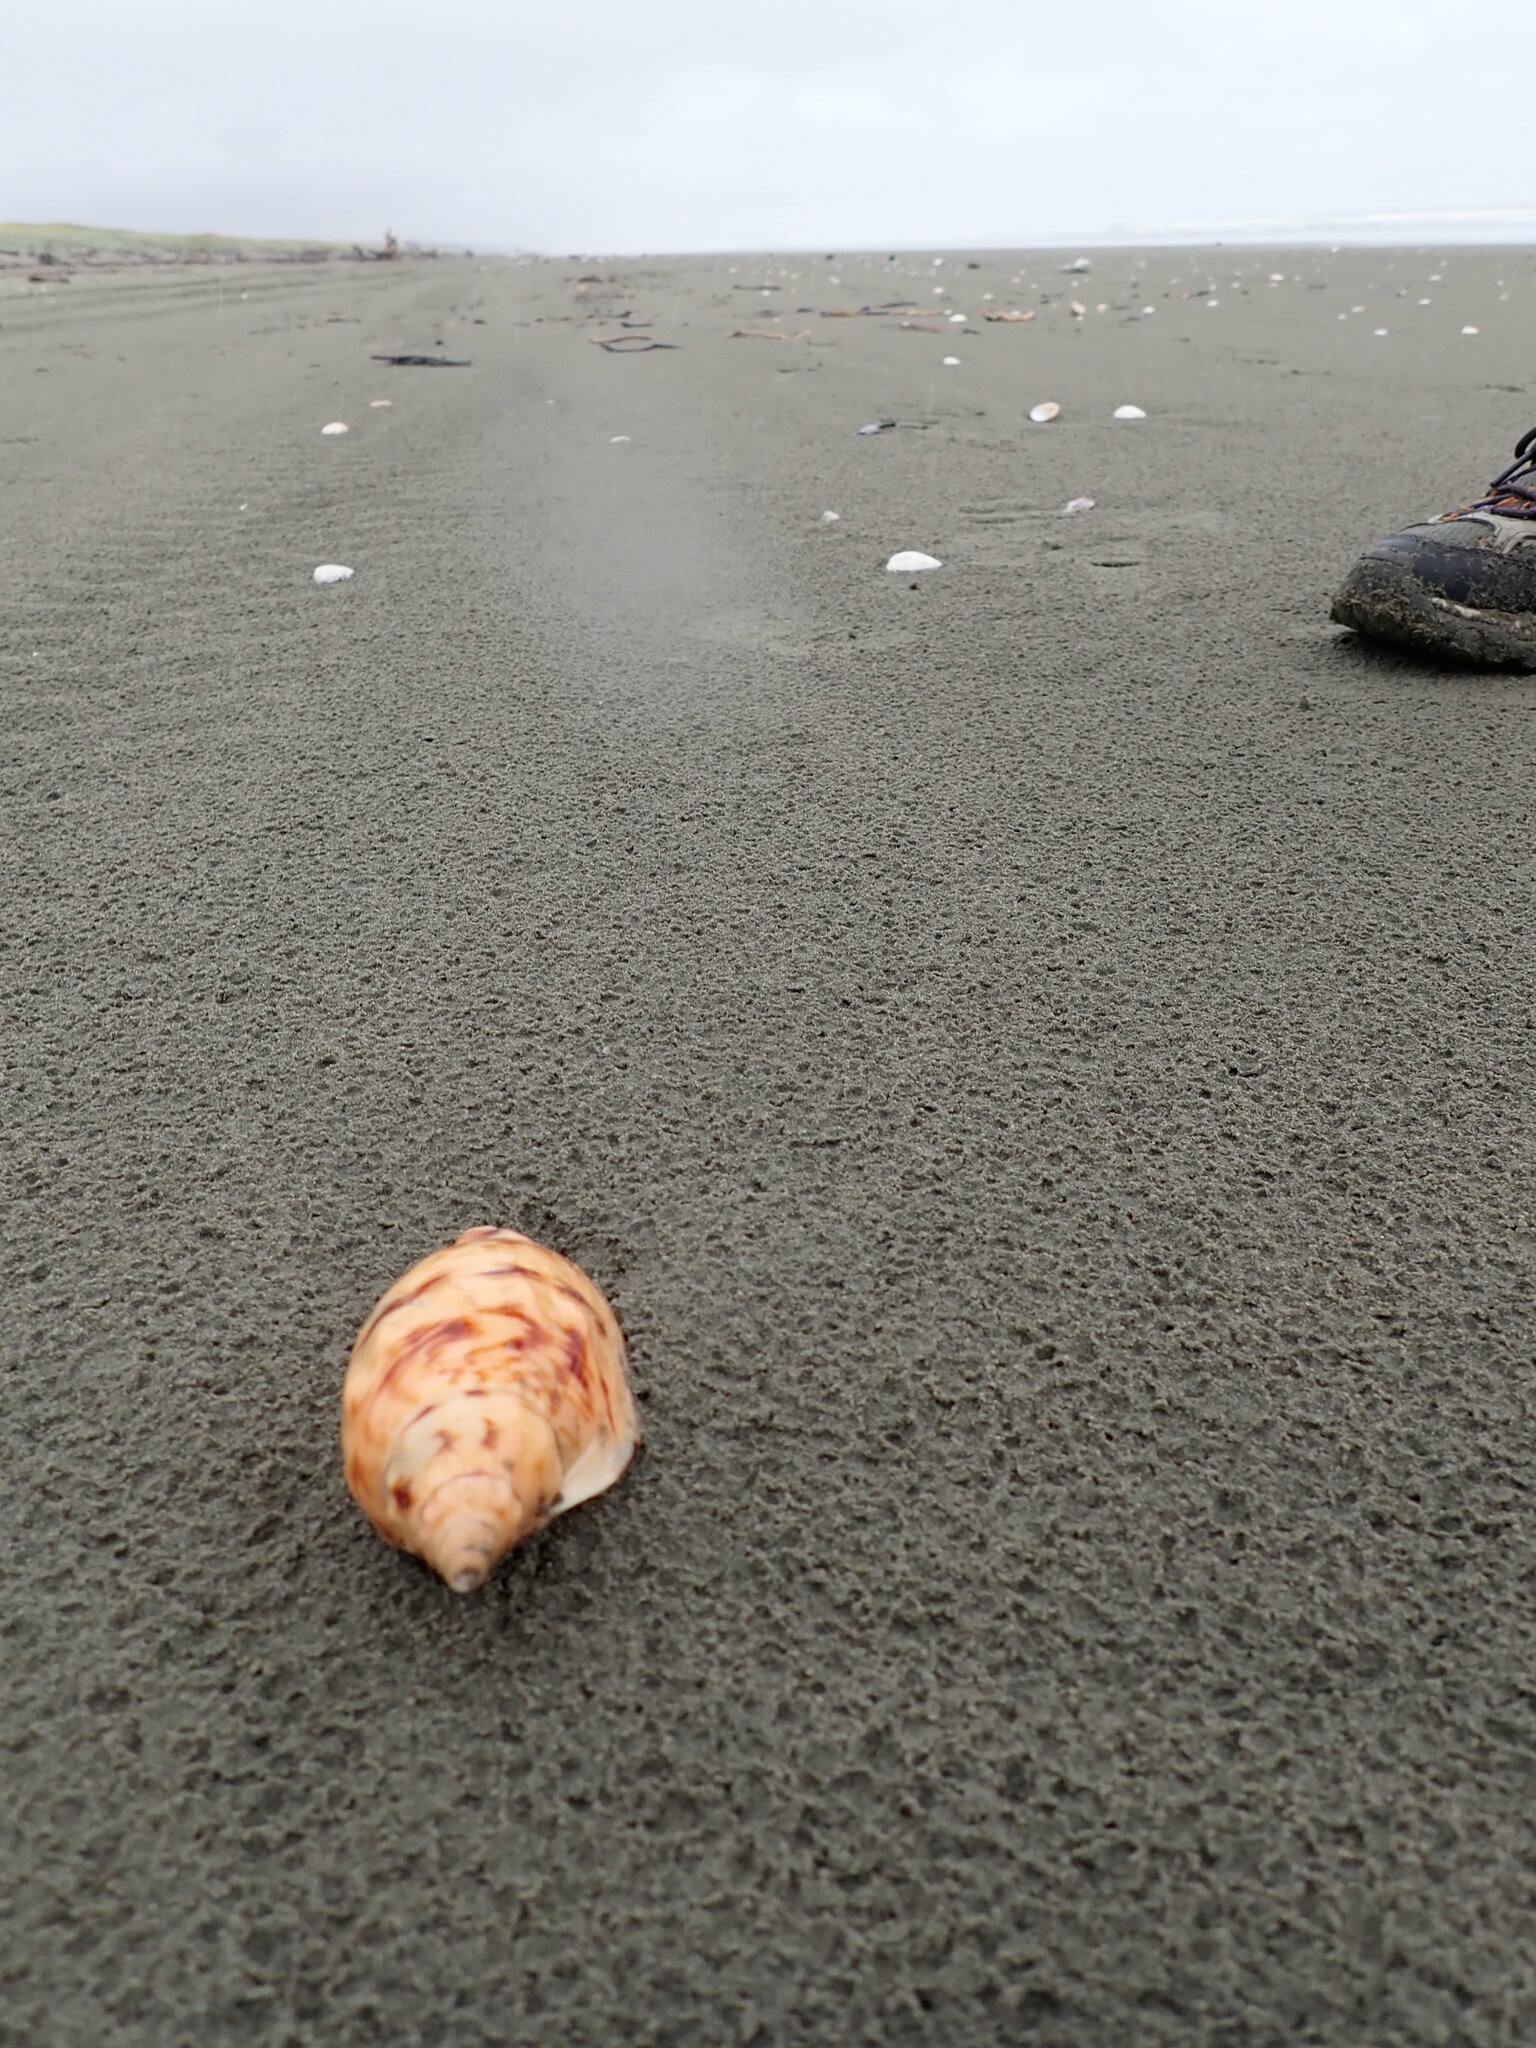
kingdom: Animalia
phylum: Mollusca
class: Gastropoda
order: Neogastropoda
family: Volutidae
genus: Alcithoe
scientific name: Alcithoe arabica
